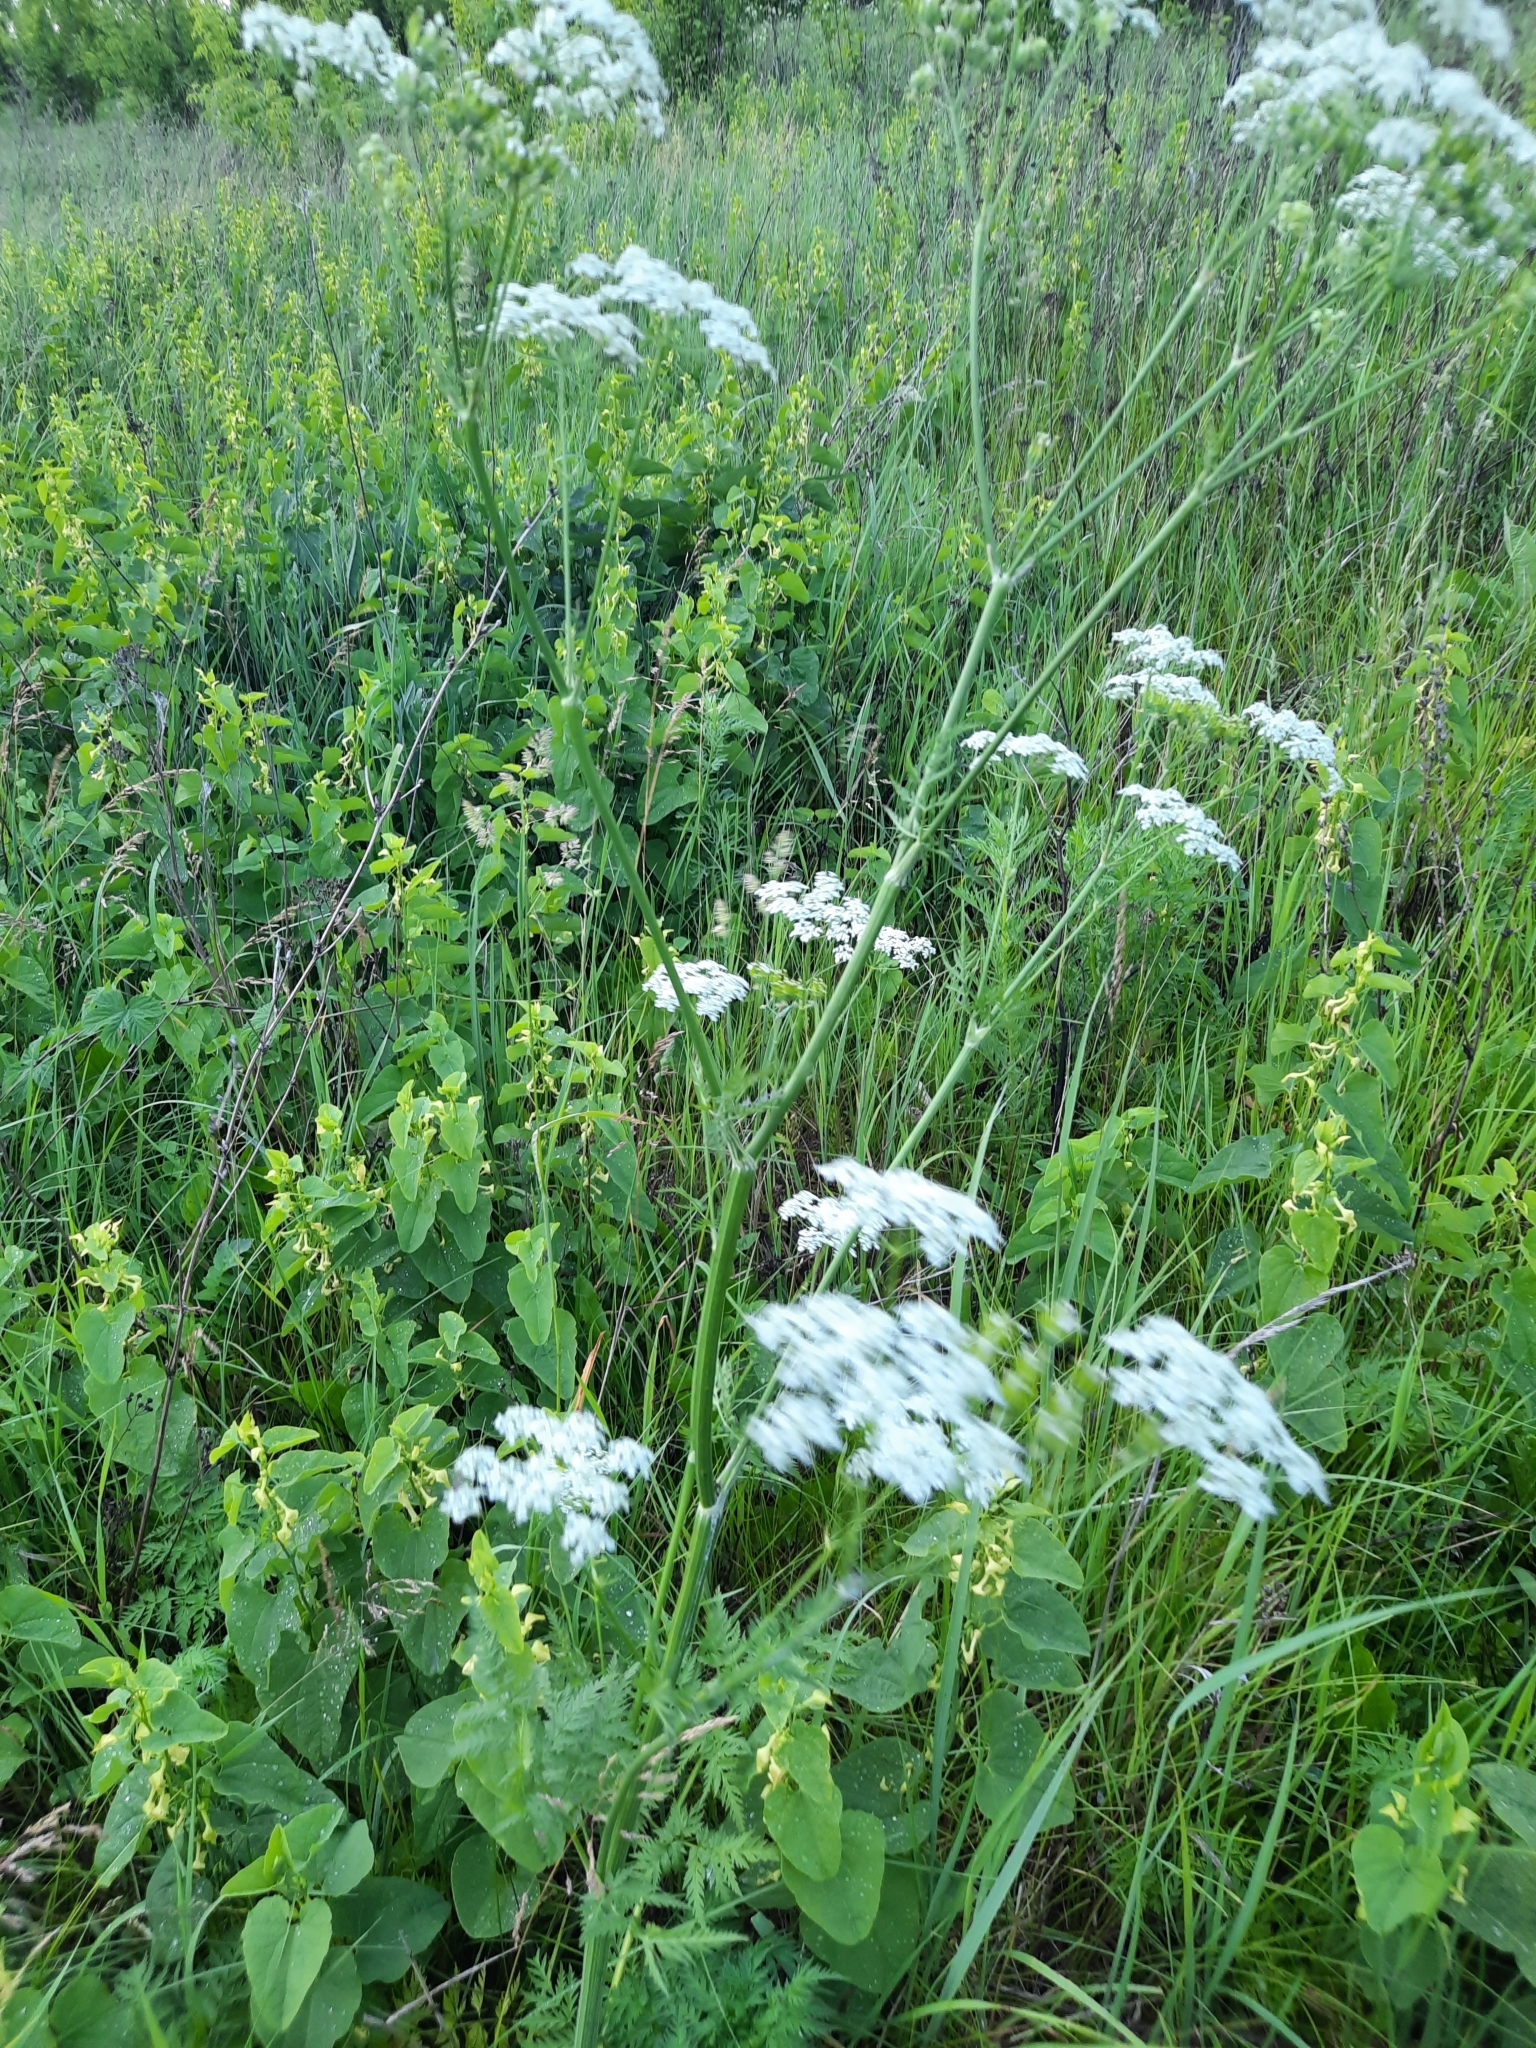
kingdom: Plantae
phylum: Tracheophyta
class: Magnoliopsida
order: Apiales
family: Apiaceae
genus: Anthriscus
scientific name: Anthriscus sylvestris
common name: Cow parsley
